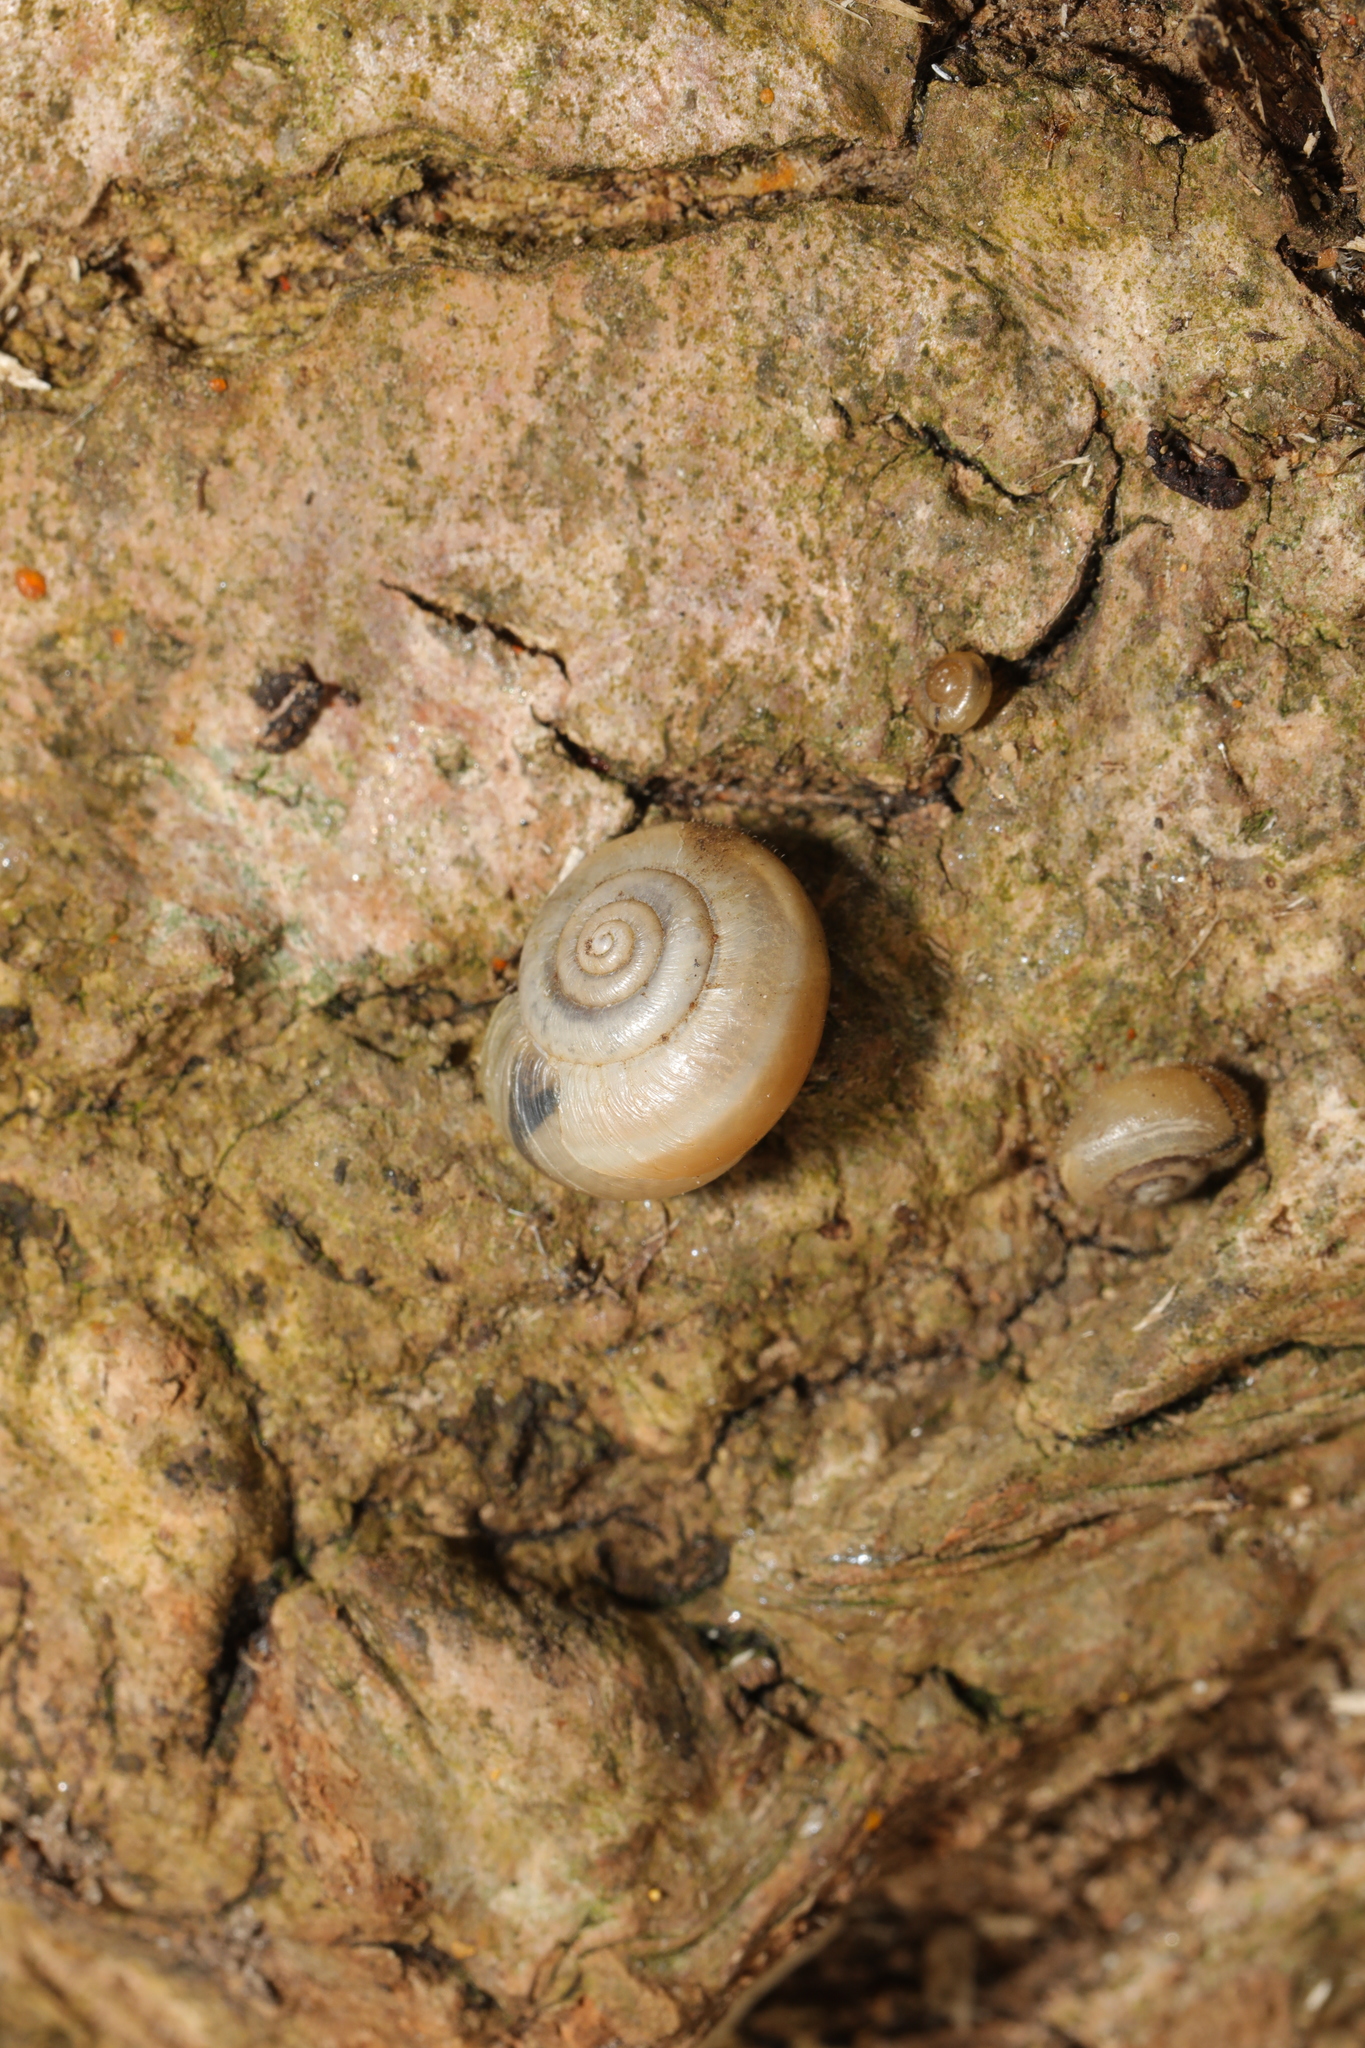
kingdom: Animalia
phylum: Mollusca
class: Gastropoda
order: Stylommatophora
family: Hygromiidae
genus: Monacha
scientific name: Monacha cantiana
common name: Kentish snail
